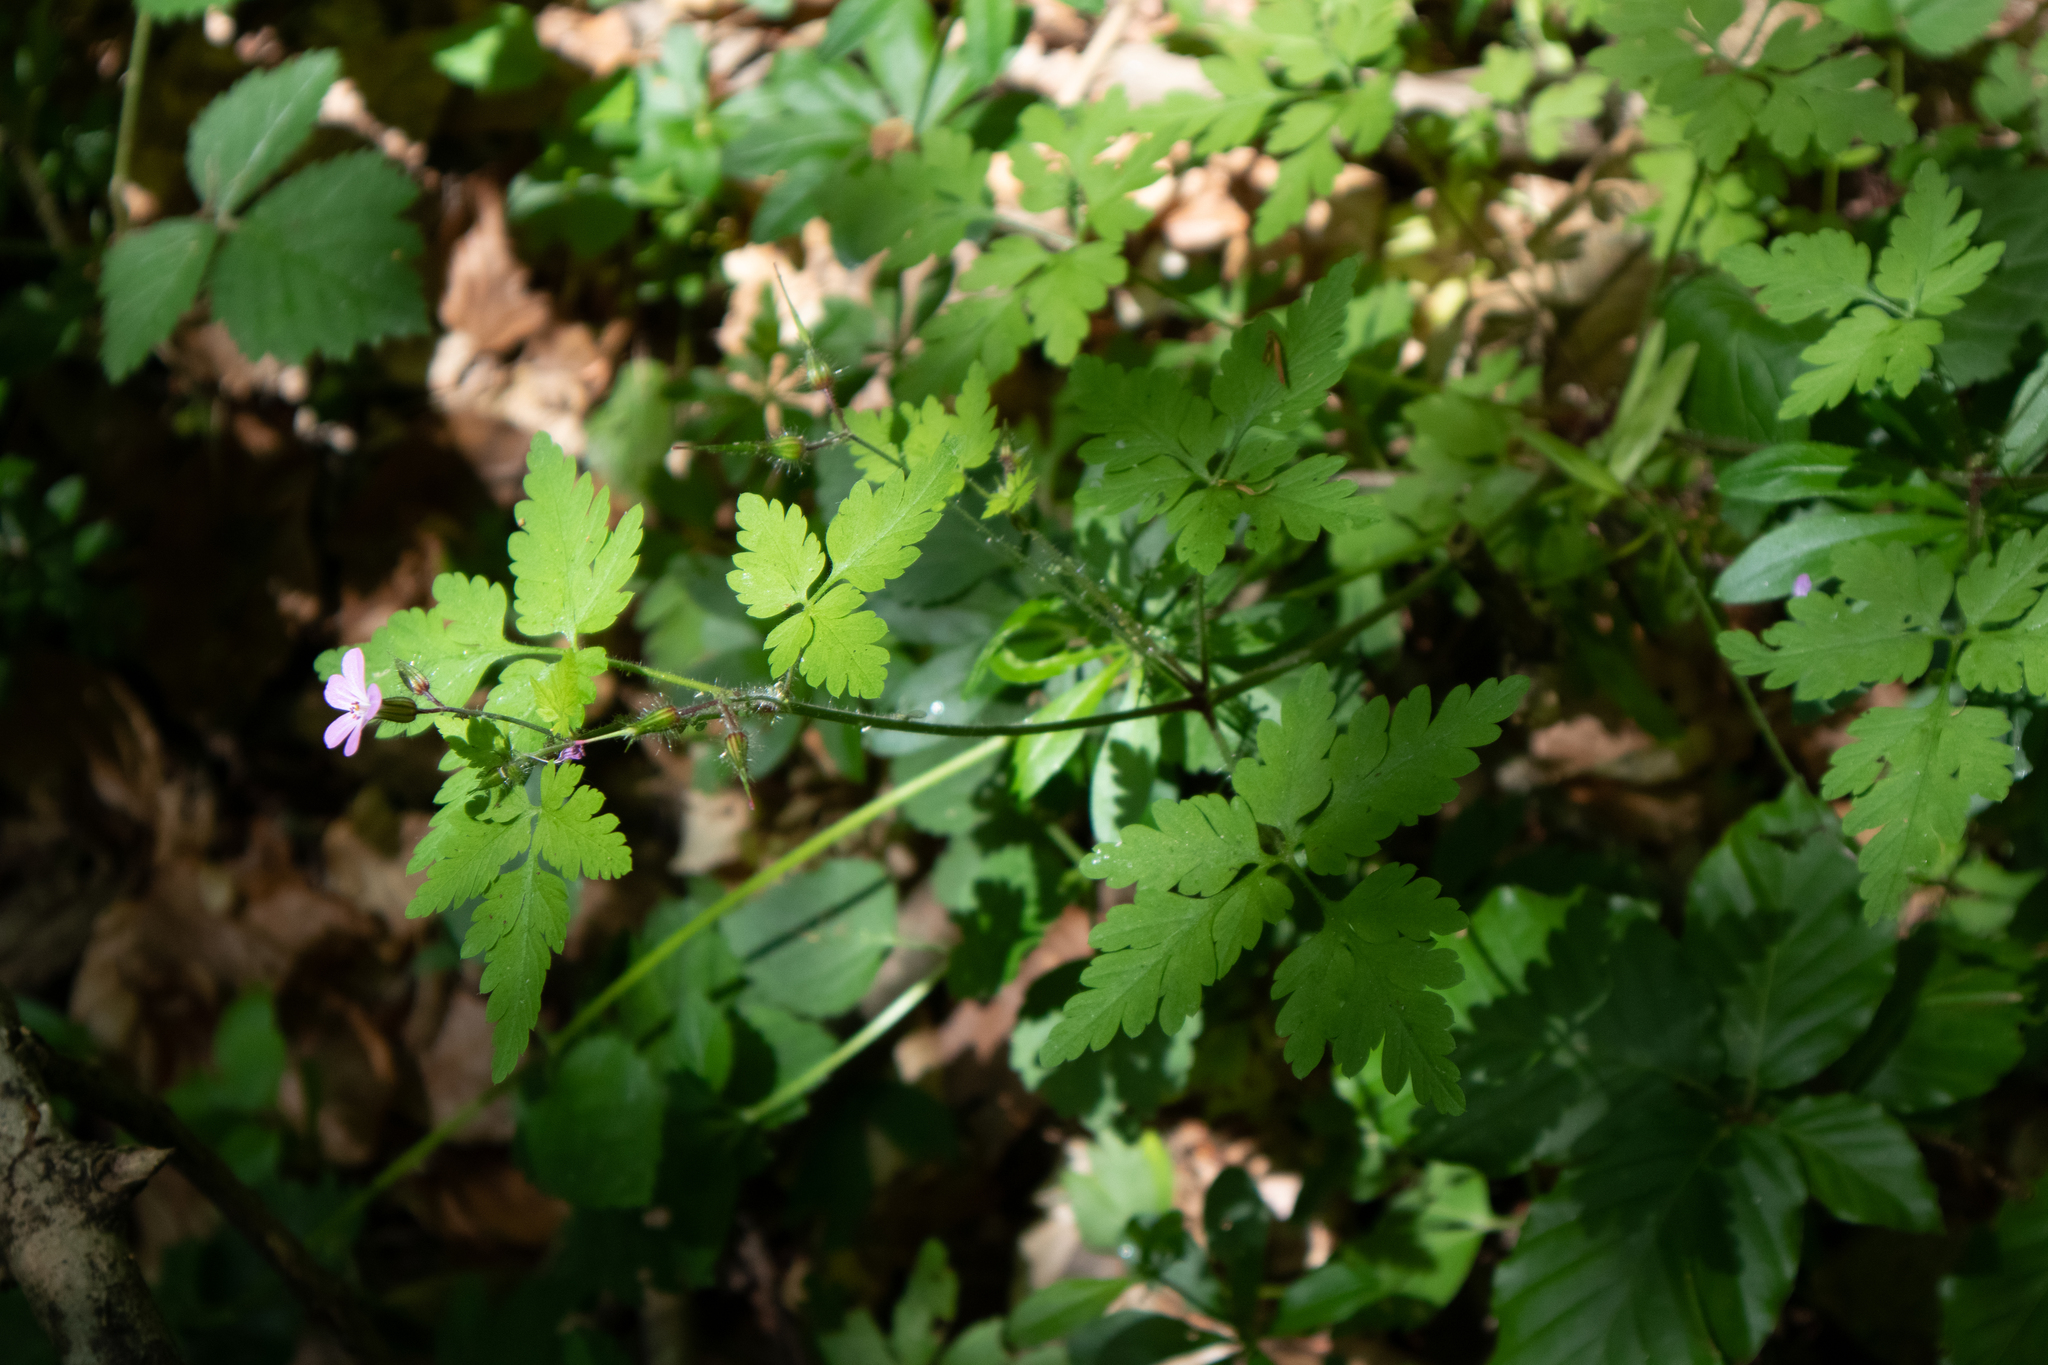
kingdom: Plantae
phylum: Tracheophyta
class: Magnoliopsida
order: Geraniales
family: Geraniaceae
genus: Geranium
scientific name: Geranium robertianum
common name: Herb-robert
